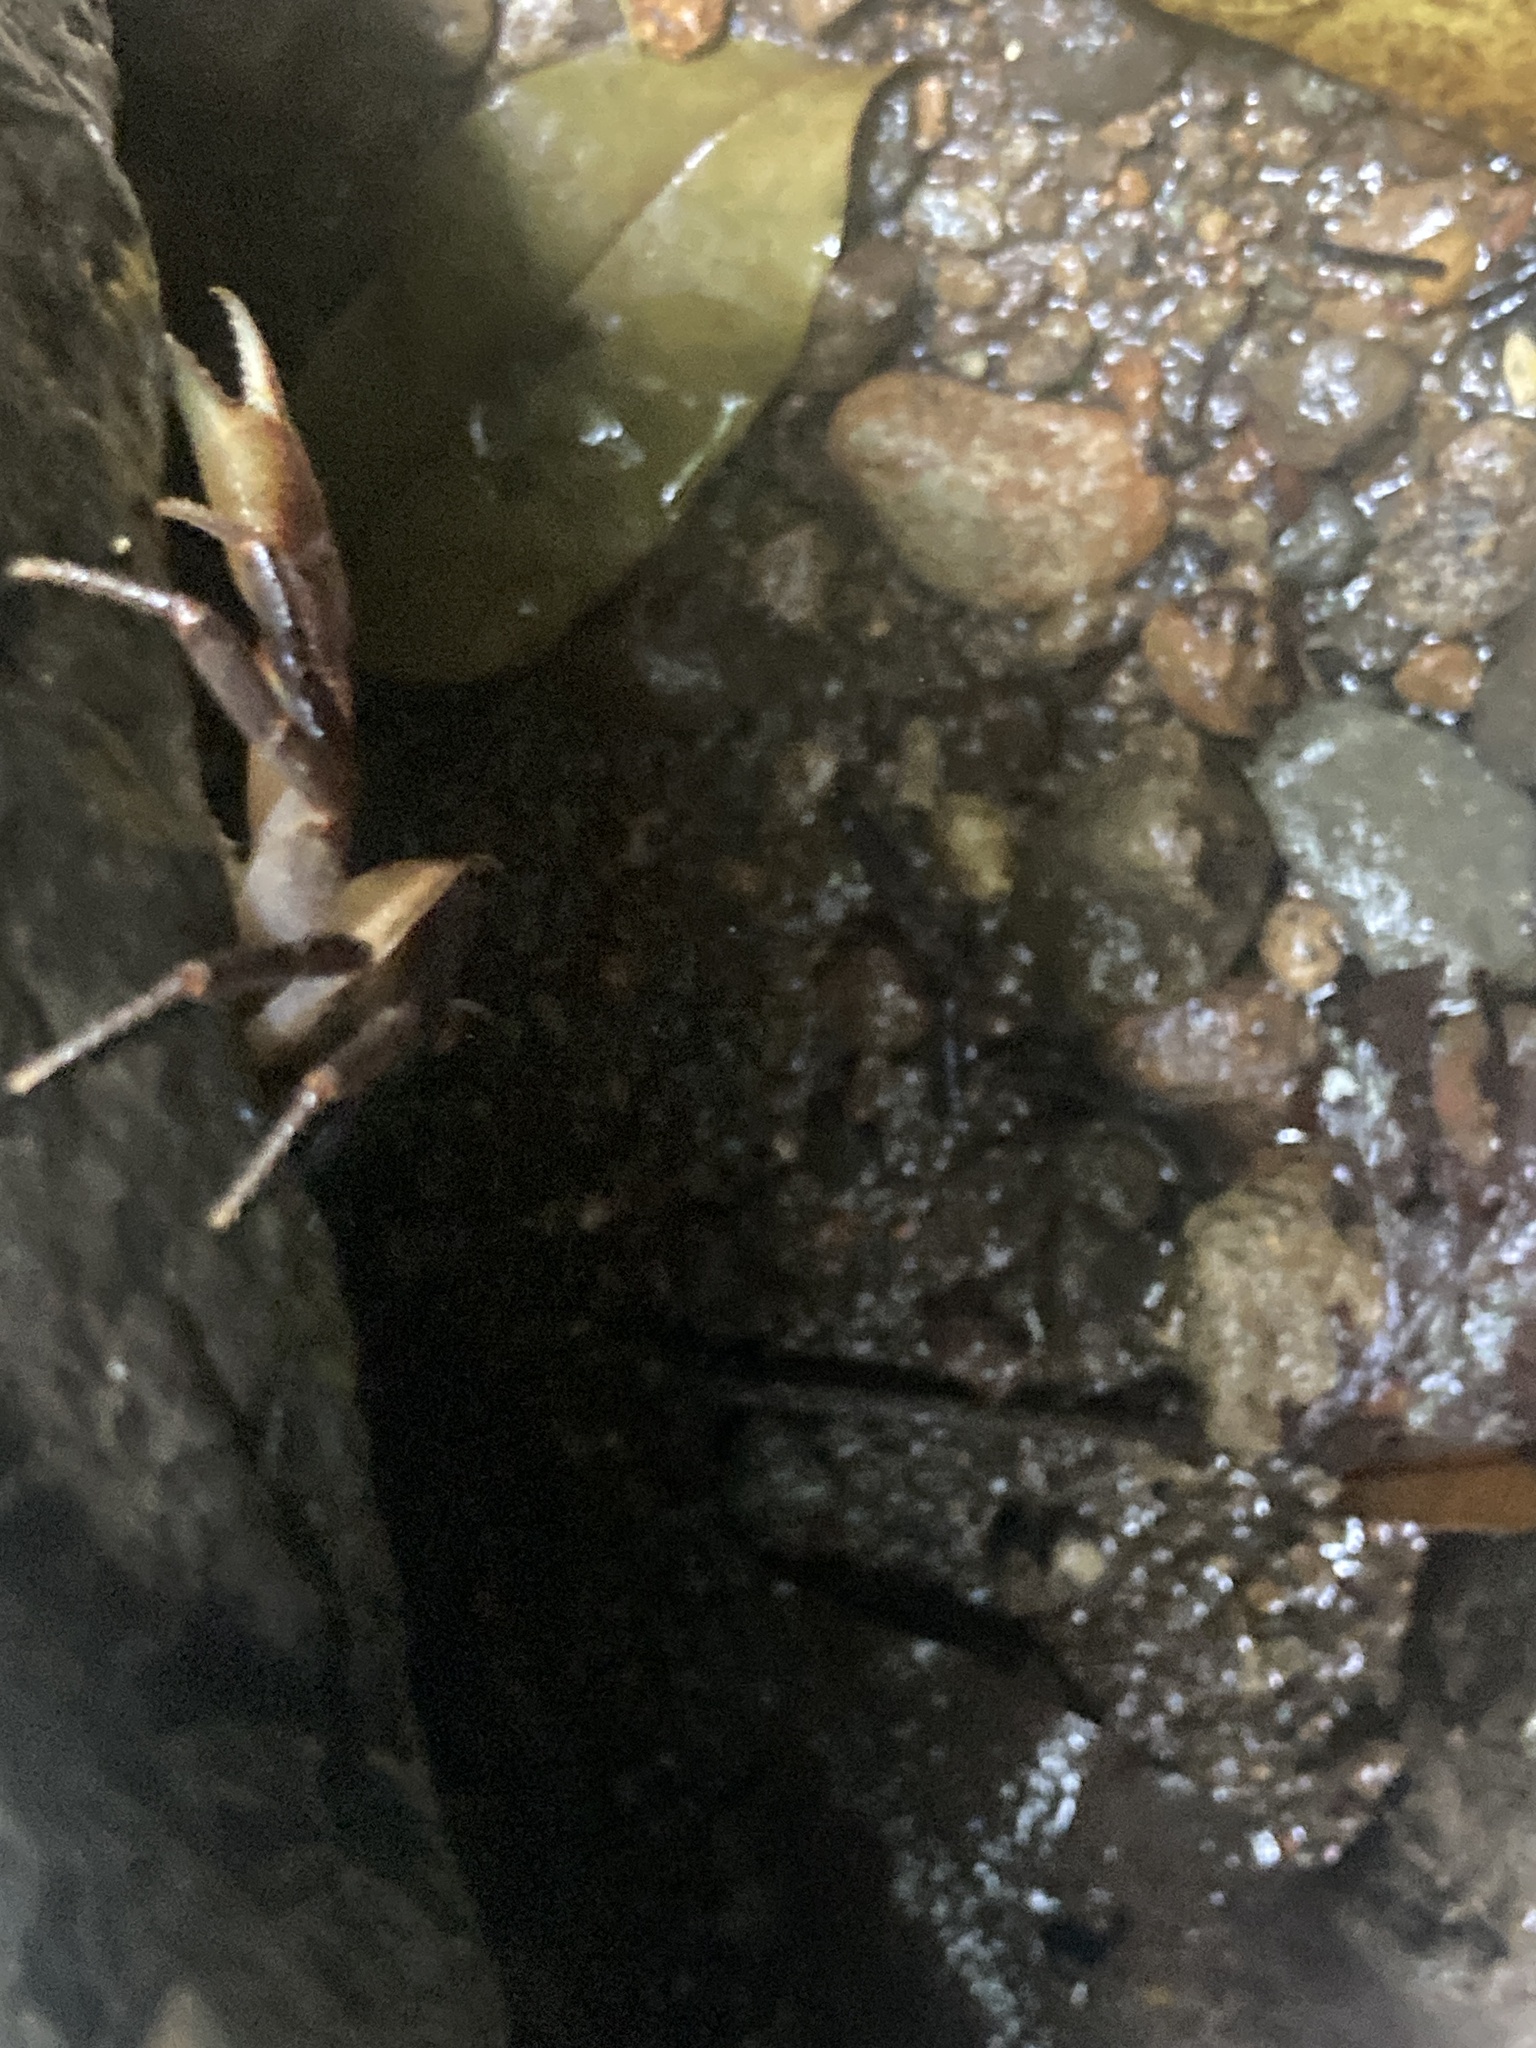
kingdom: Animalia
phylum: Arthropoda
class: Malacostraca
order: Decapoda
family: Pseudothelphusidae
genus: Guinotia
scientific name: Guinotia dentata
